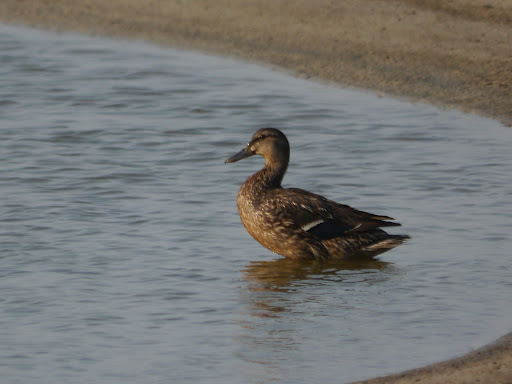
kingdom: Animalia
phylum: Chordata
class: Aves
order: Anseriformes
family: Anatidae
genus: Anas
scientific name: Anas platyrhynchos
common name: Mallard
